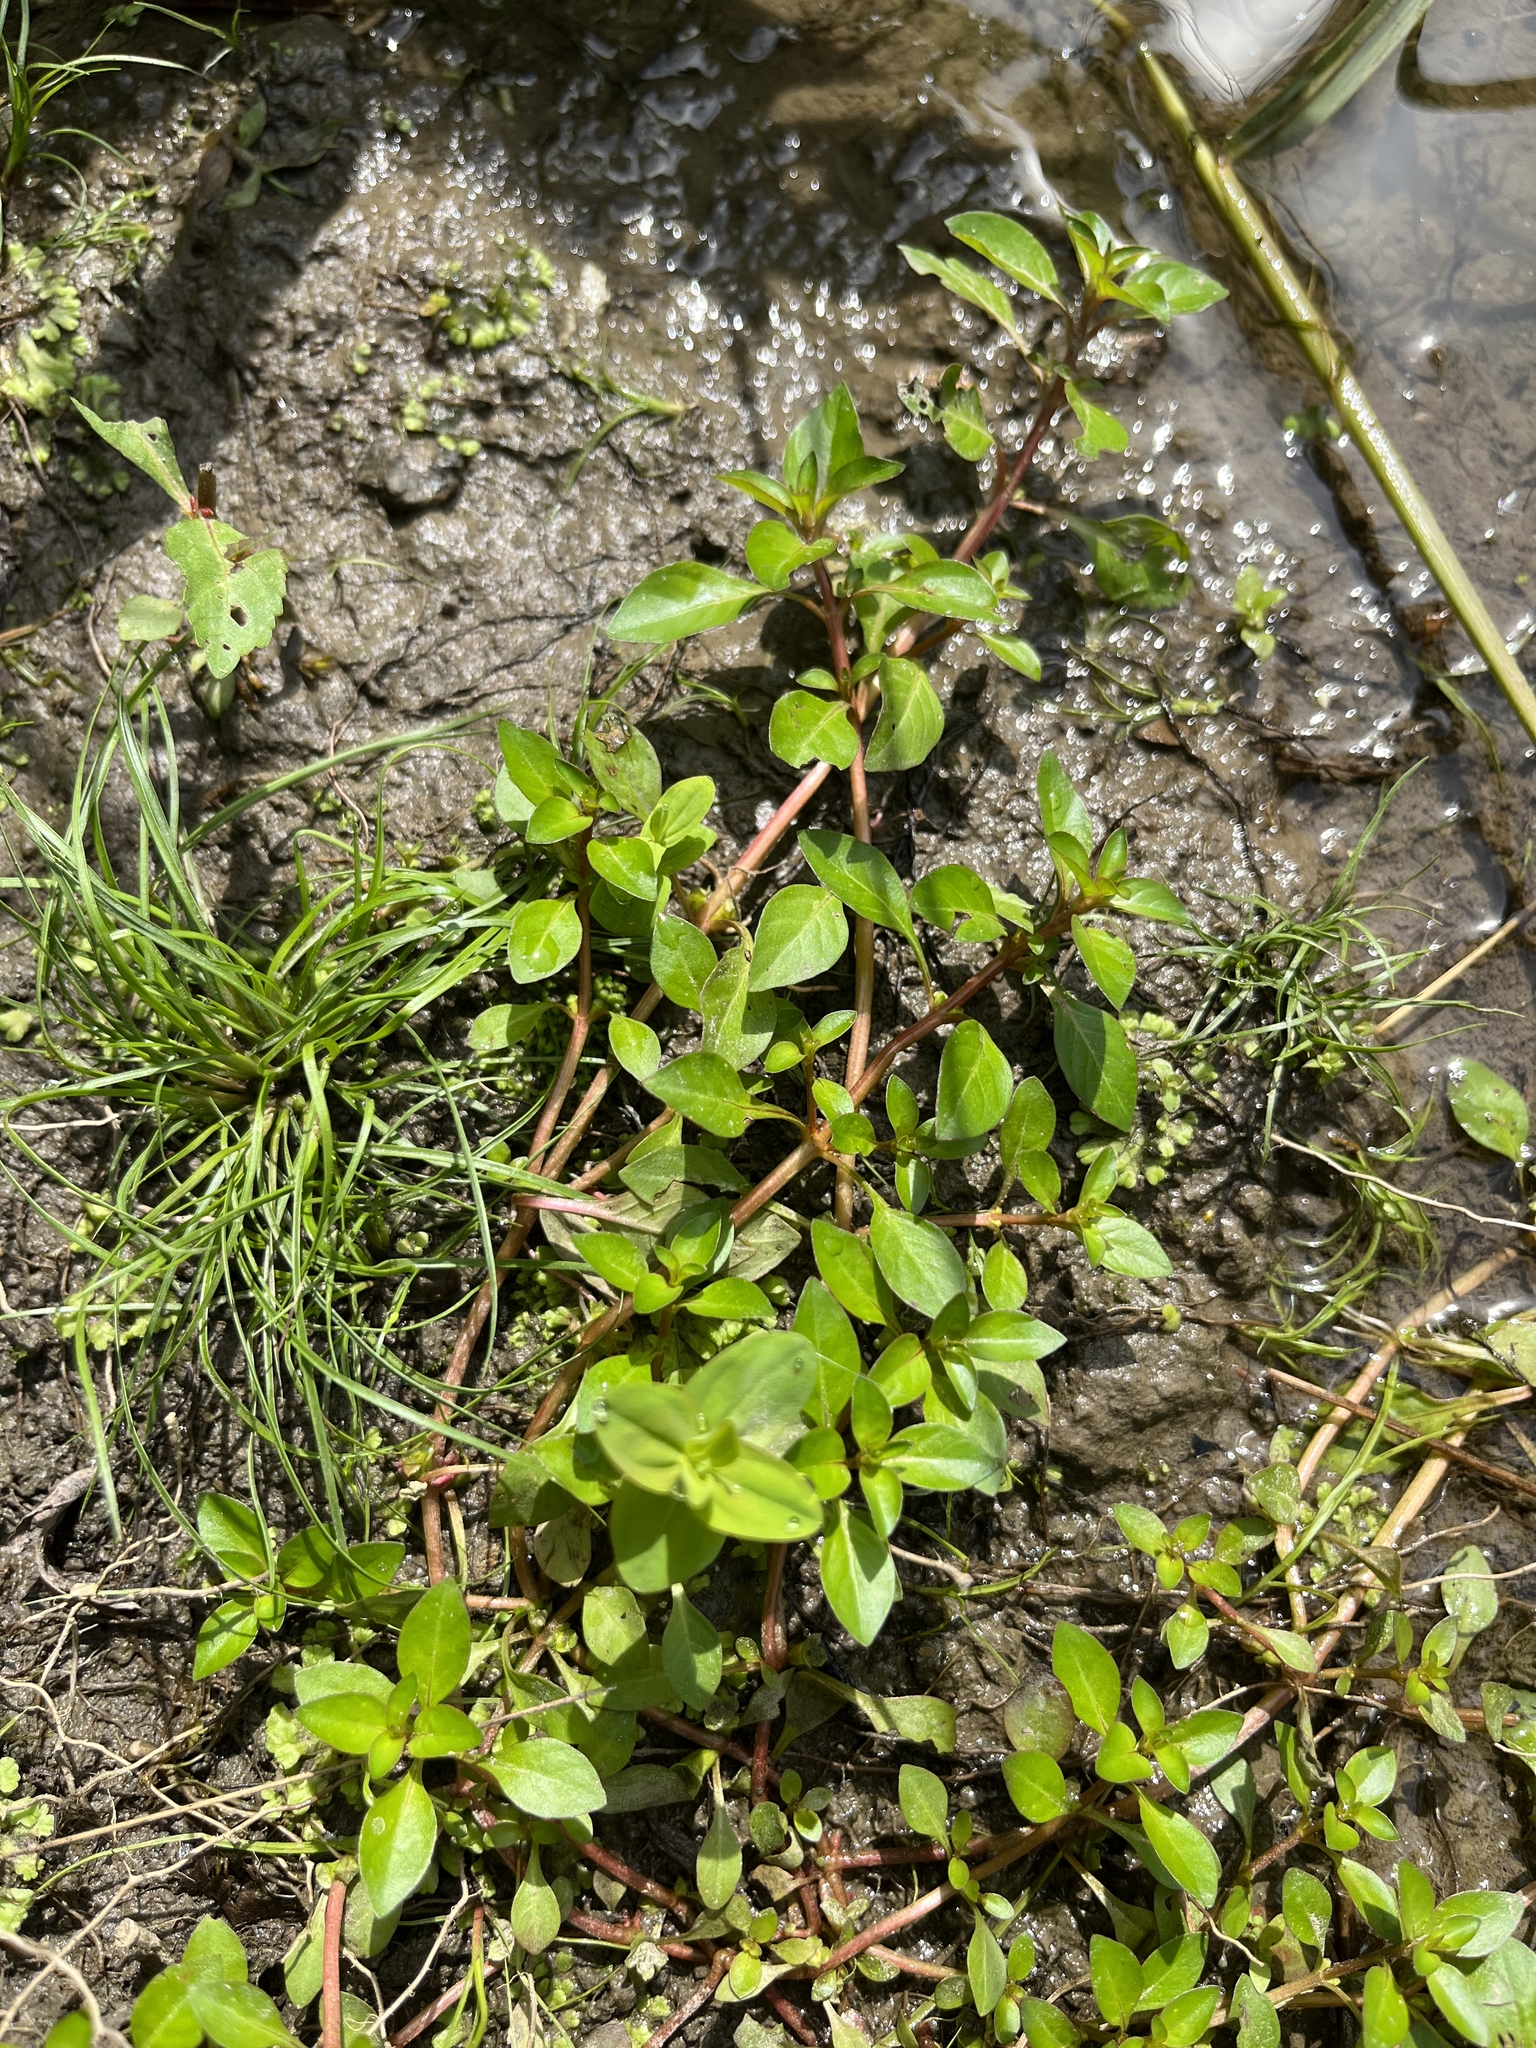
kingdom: Plantae
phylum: Tracheophyta
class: Magnoliopsida
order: Myrtales
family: Onagraceae
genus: Ludwigia
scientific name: Ludwigia palustris
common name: Hampshire-purslane
